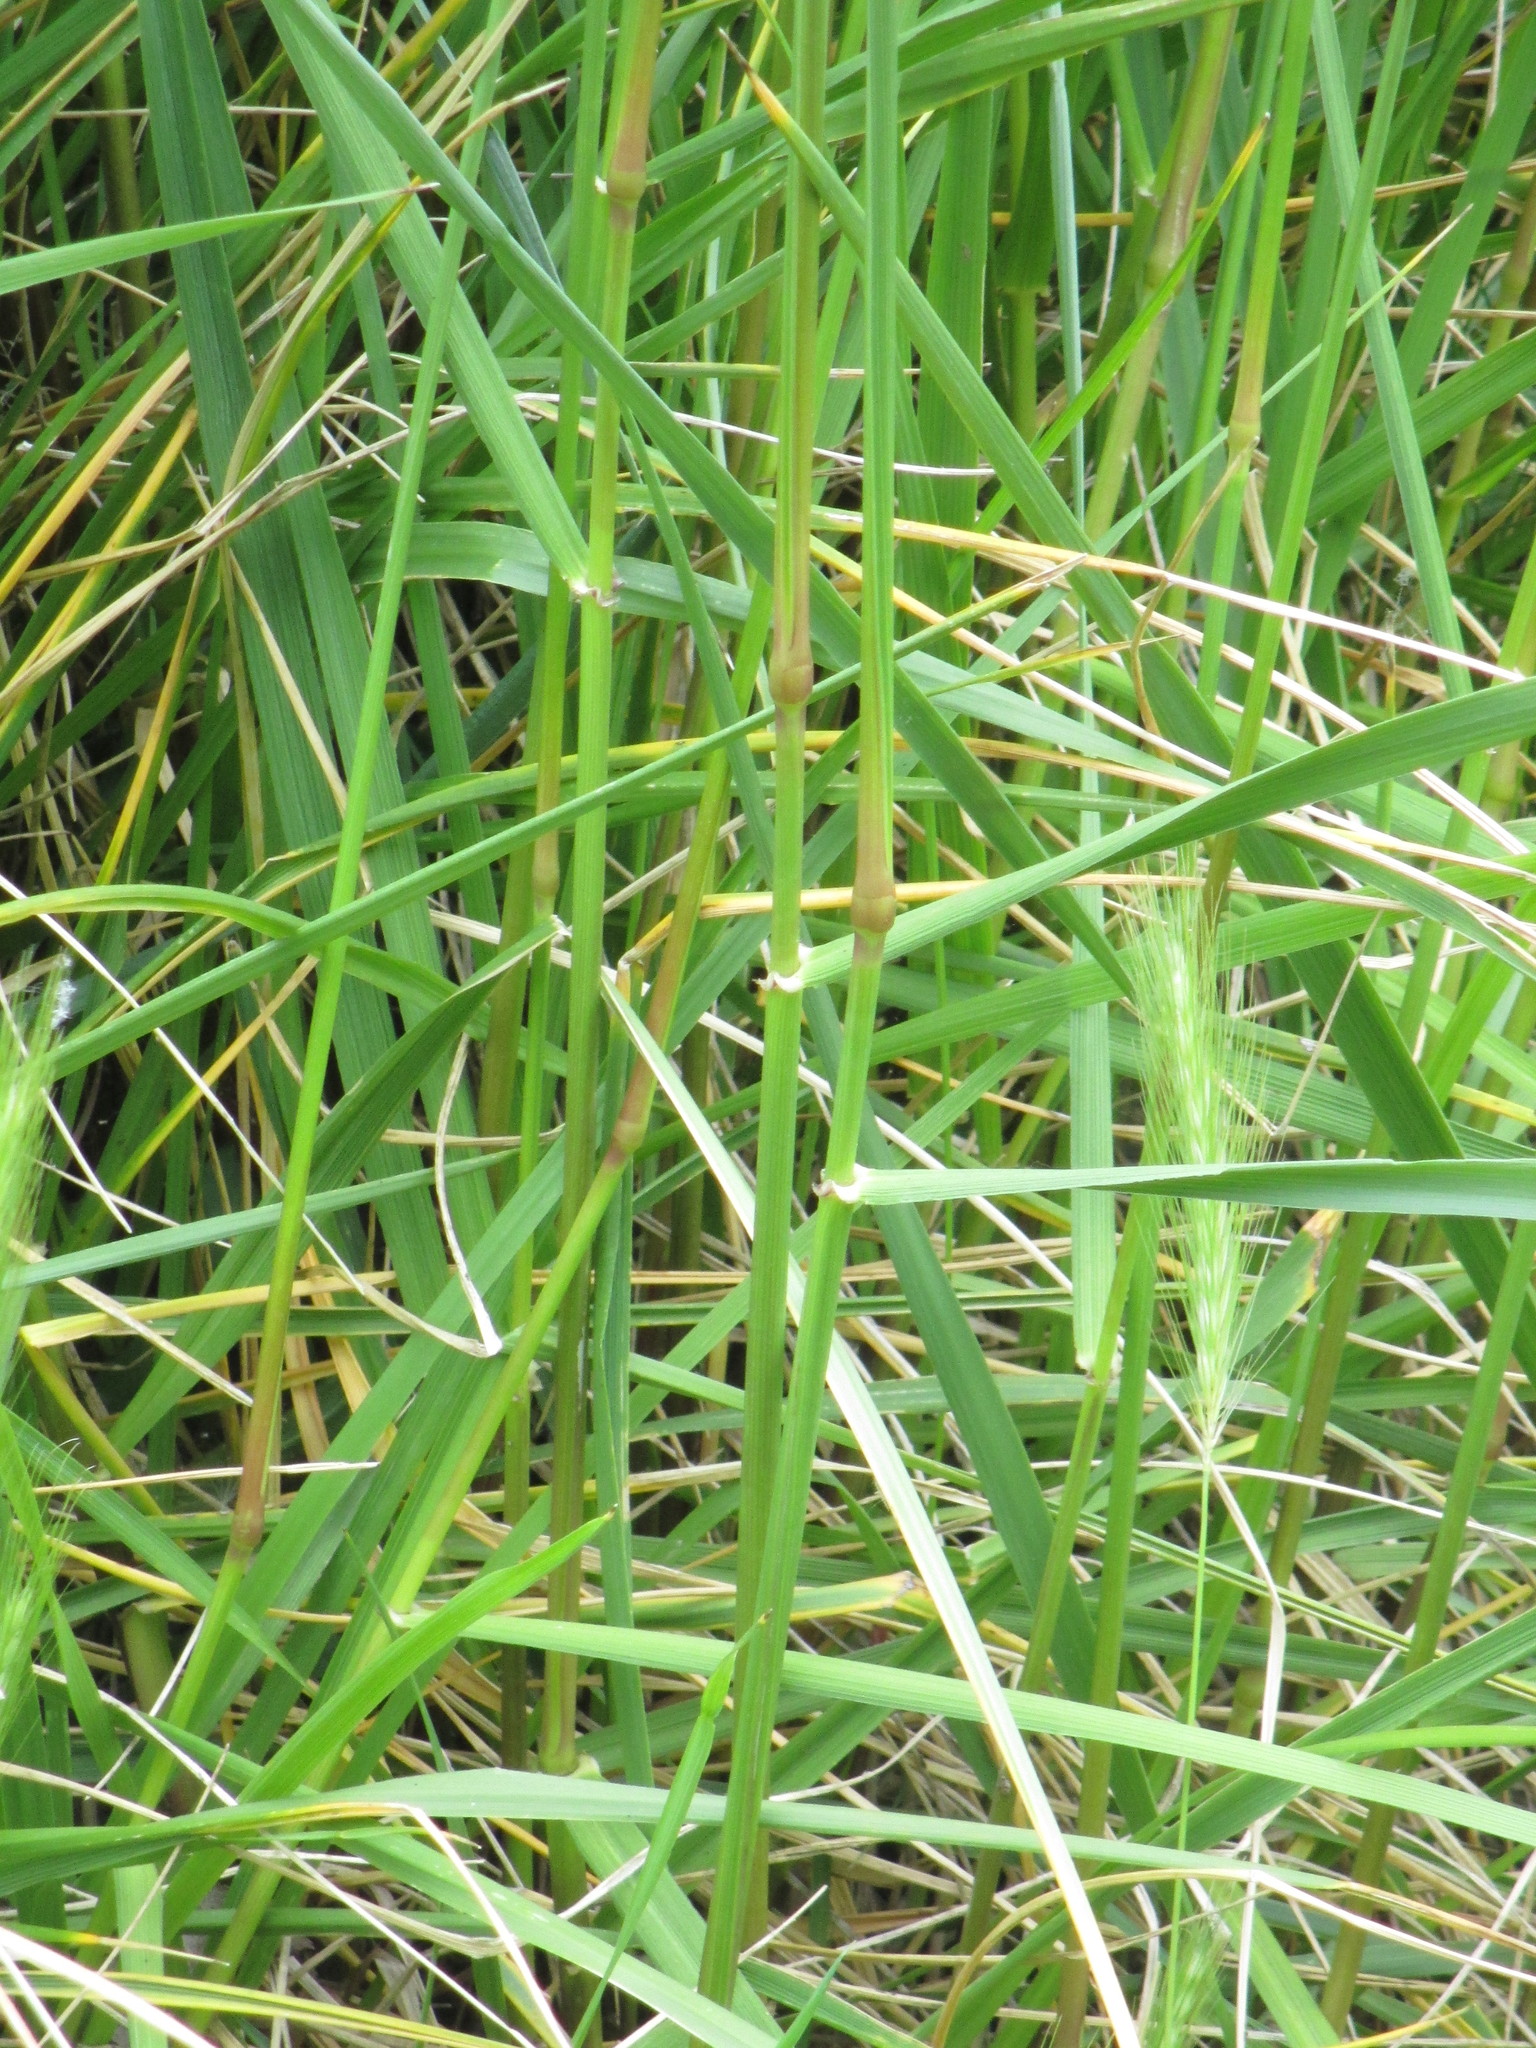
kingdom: Plantae
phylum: Tracheophyta
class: Liliopsida
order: Poales
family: Poaceae
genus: Lolium
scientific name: Lolium arundinaceum
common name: Reed fescue
